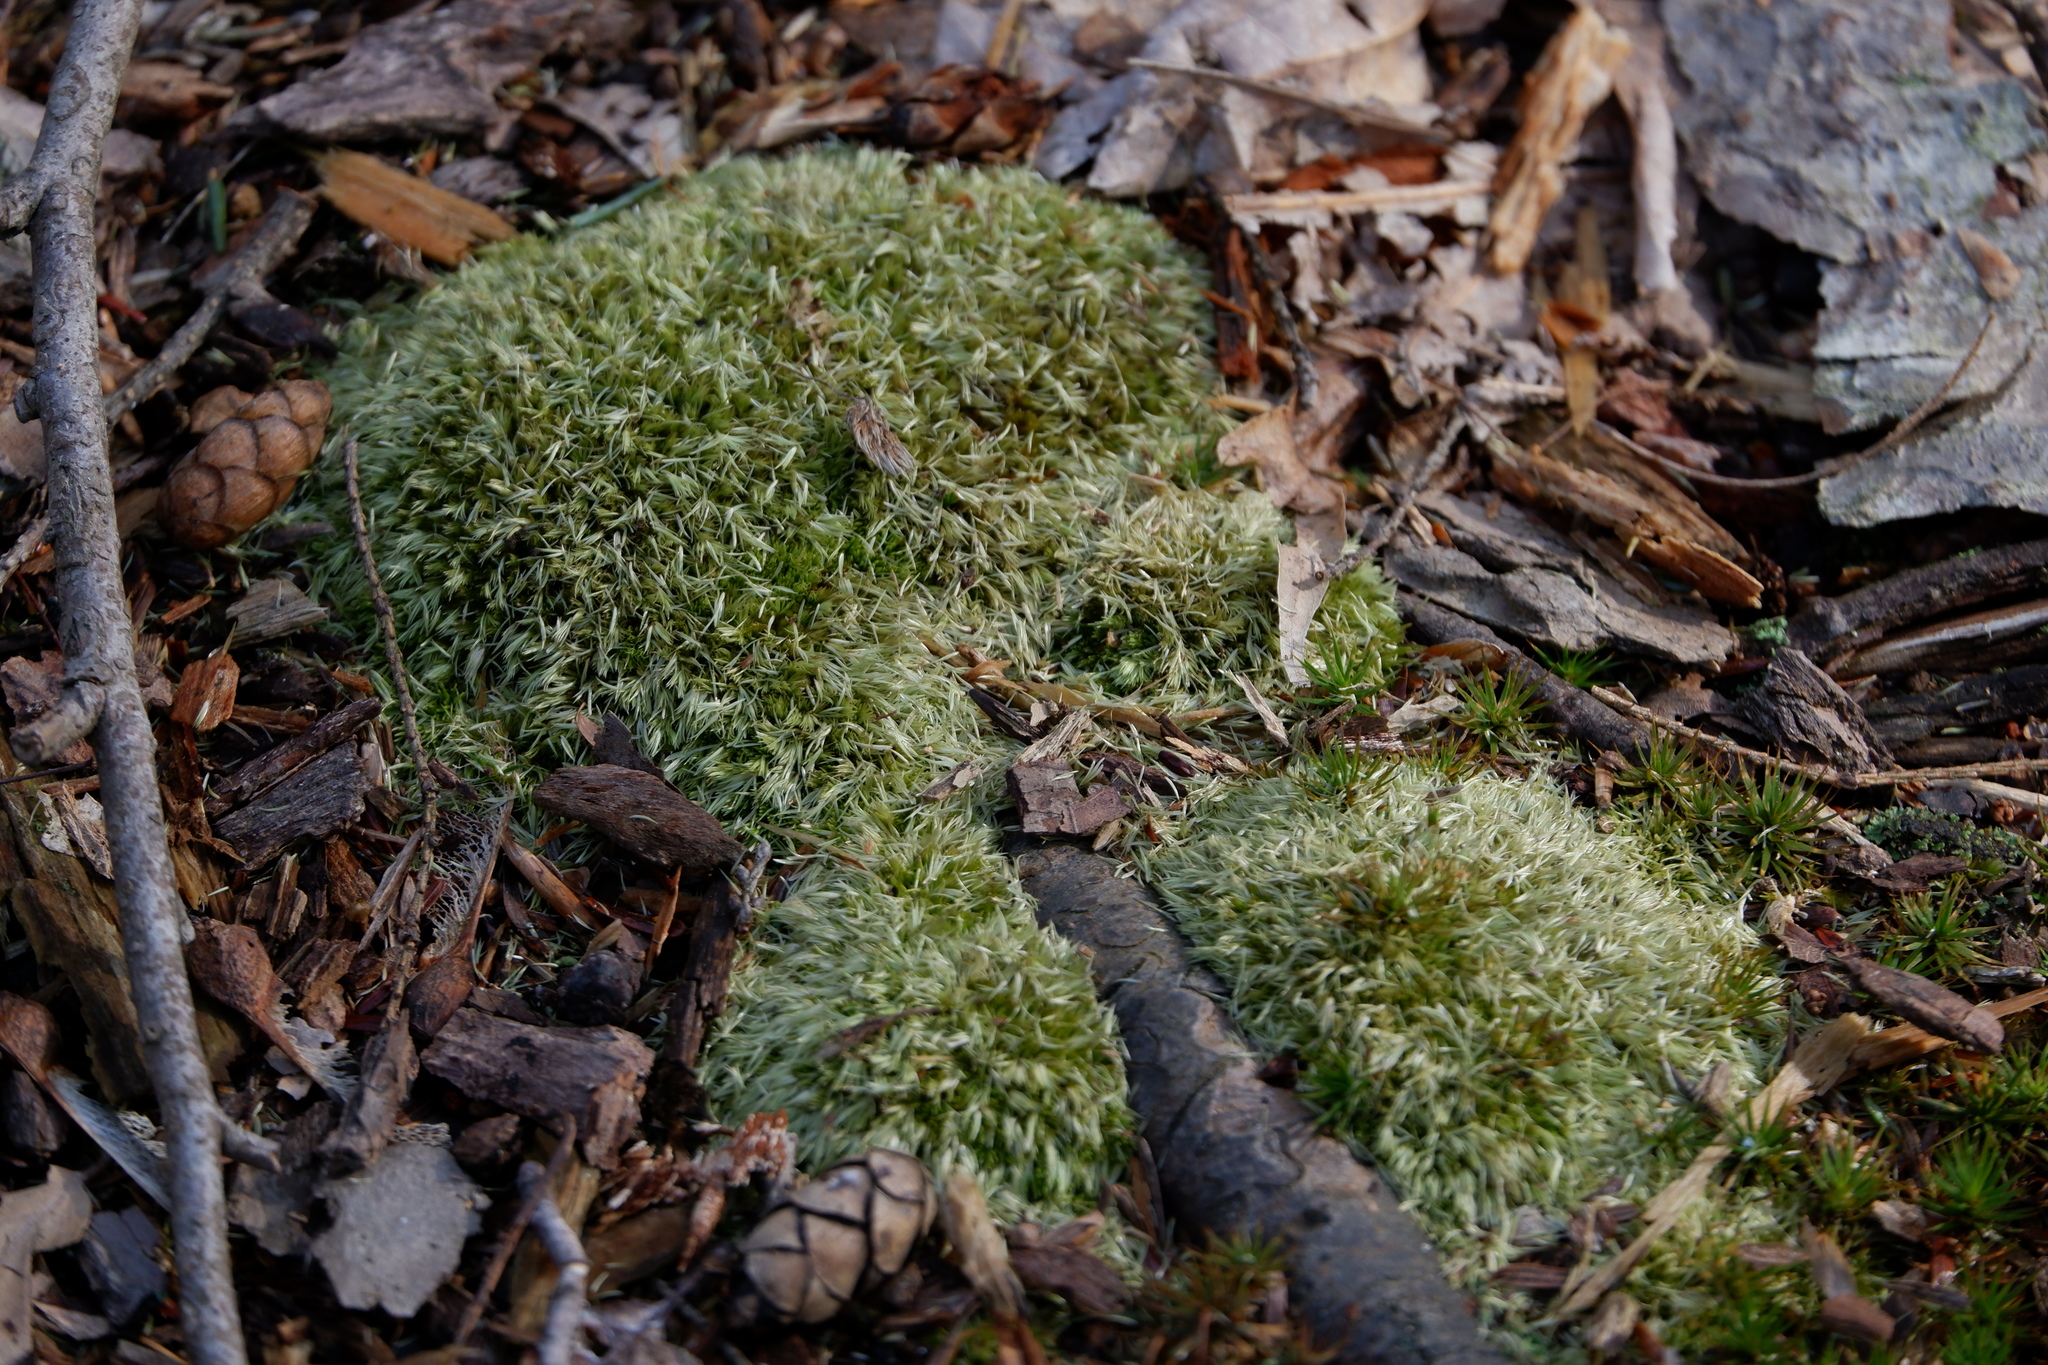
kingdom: Plantae
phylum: Bryophyta
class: Bryopsida
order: Dicranales
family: Leucobryaceae
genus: Leucobryum
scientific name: Leucobryum glaucum
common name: Large white-moss
